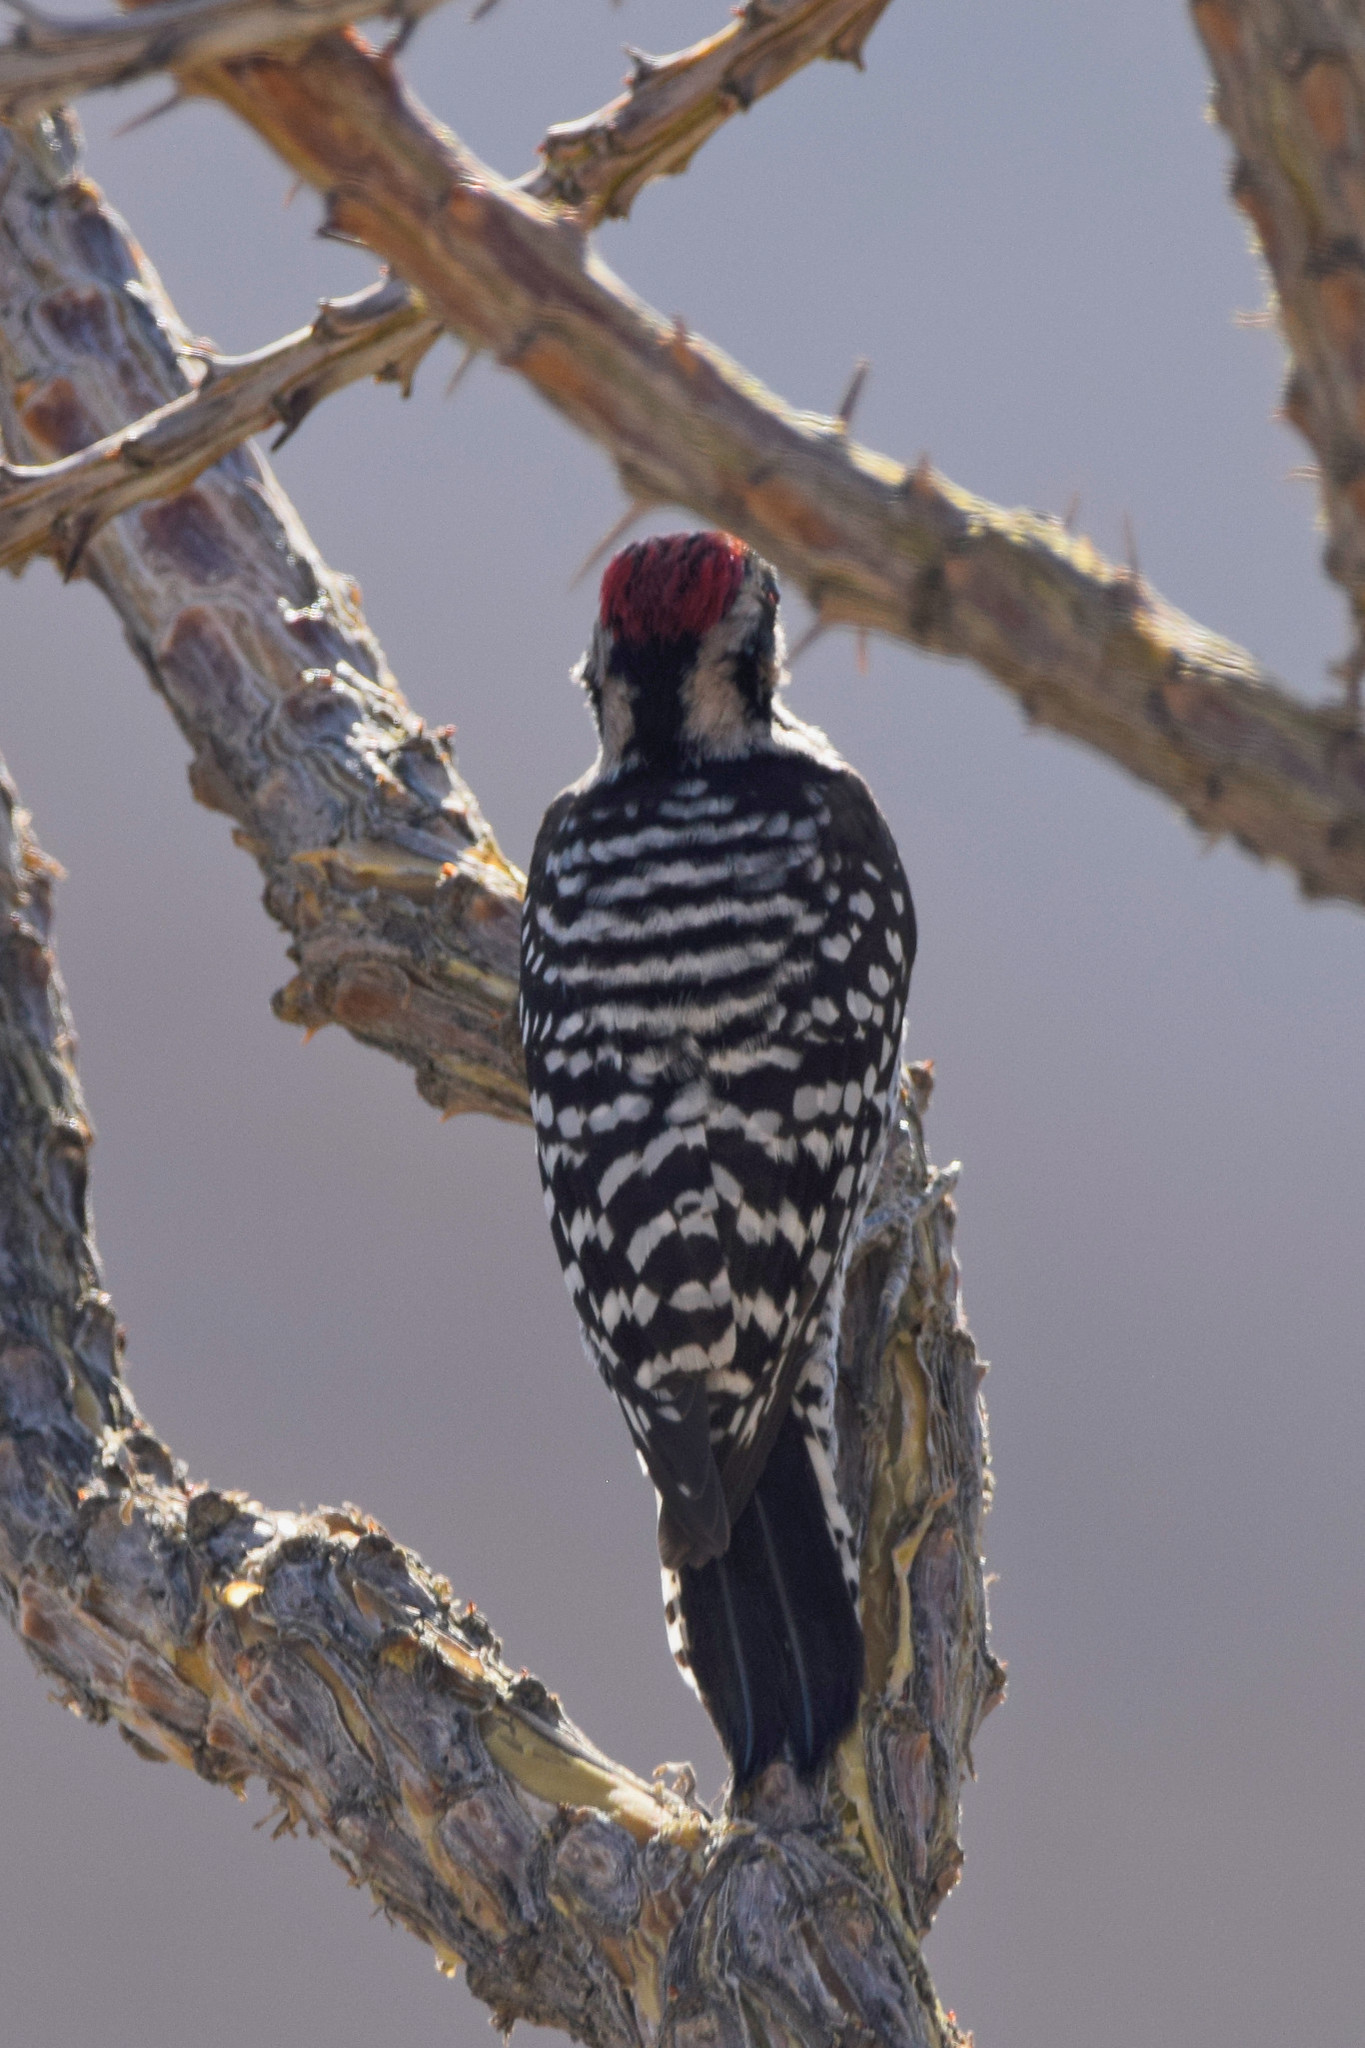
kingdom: Animalia
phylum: Chordata
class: Aves
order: Piciformes
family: Picidae
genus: Dryobates
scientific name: Dryobates scalaris
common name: Ladder-backed woodpecker
